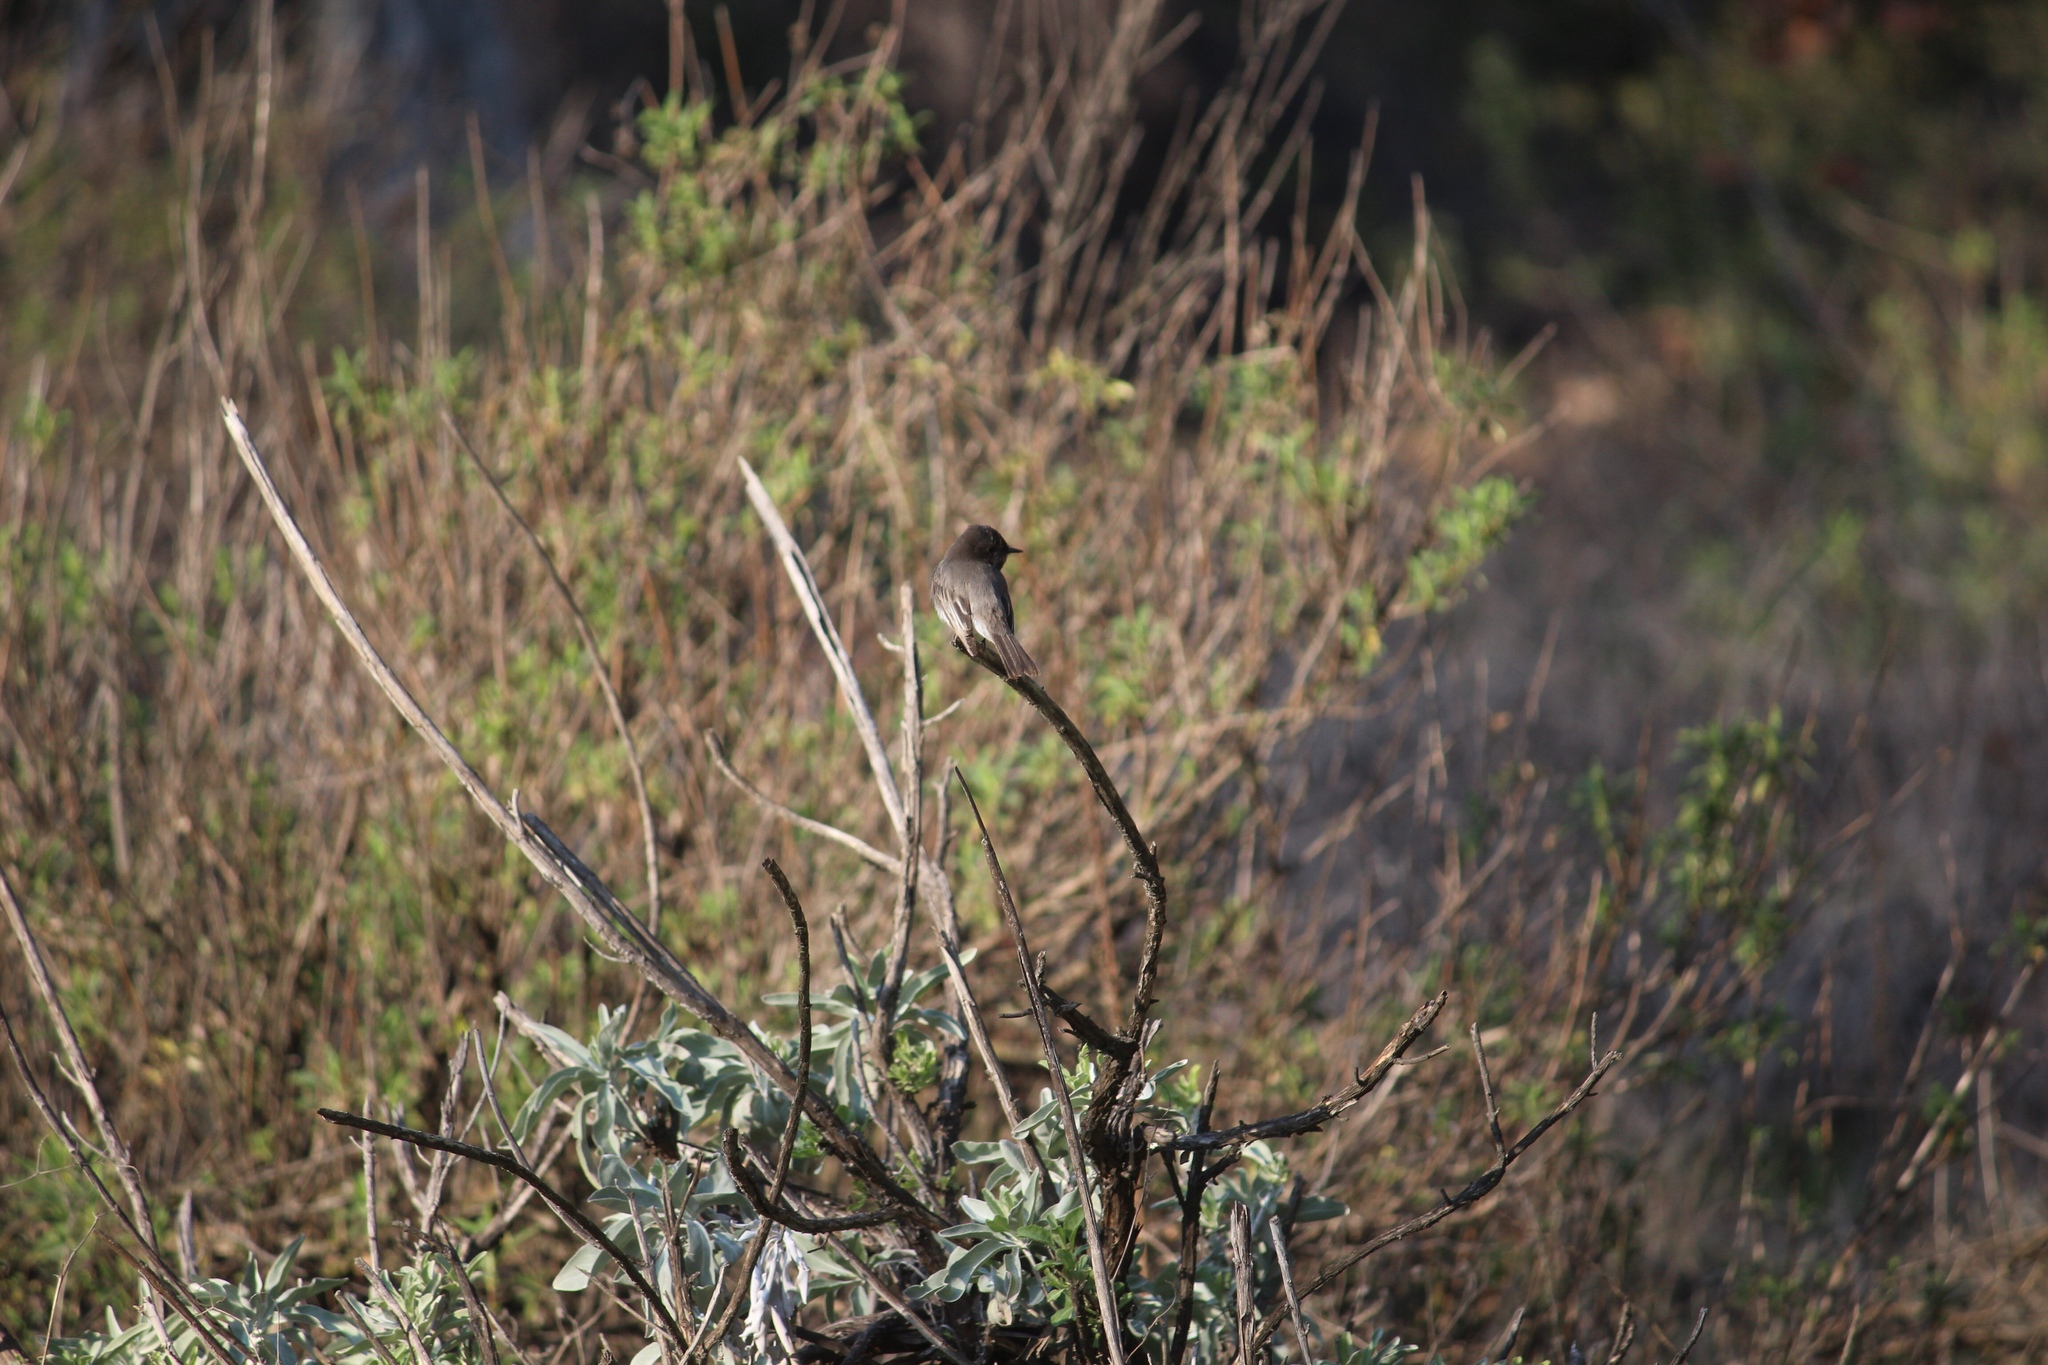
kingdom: Animalia
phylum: Chordata
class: Aves
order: Passeriformes
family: Tyrannidae
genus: Sayornis
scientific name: Sayornis nigricans
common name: Black phoebe
